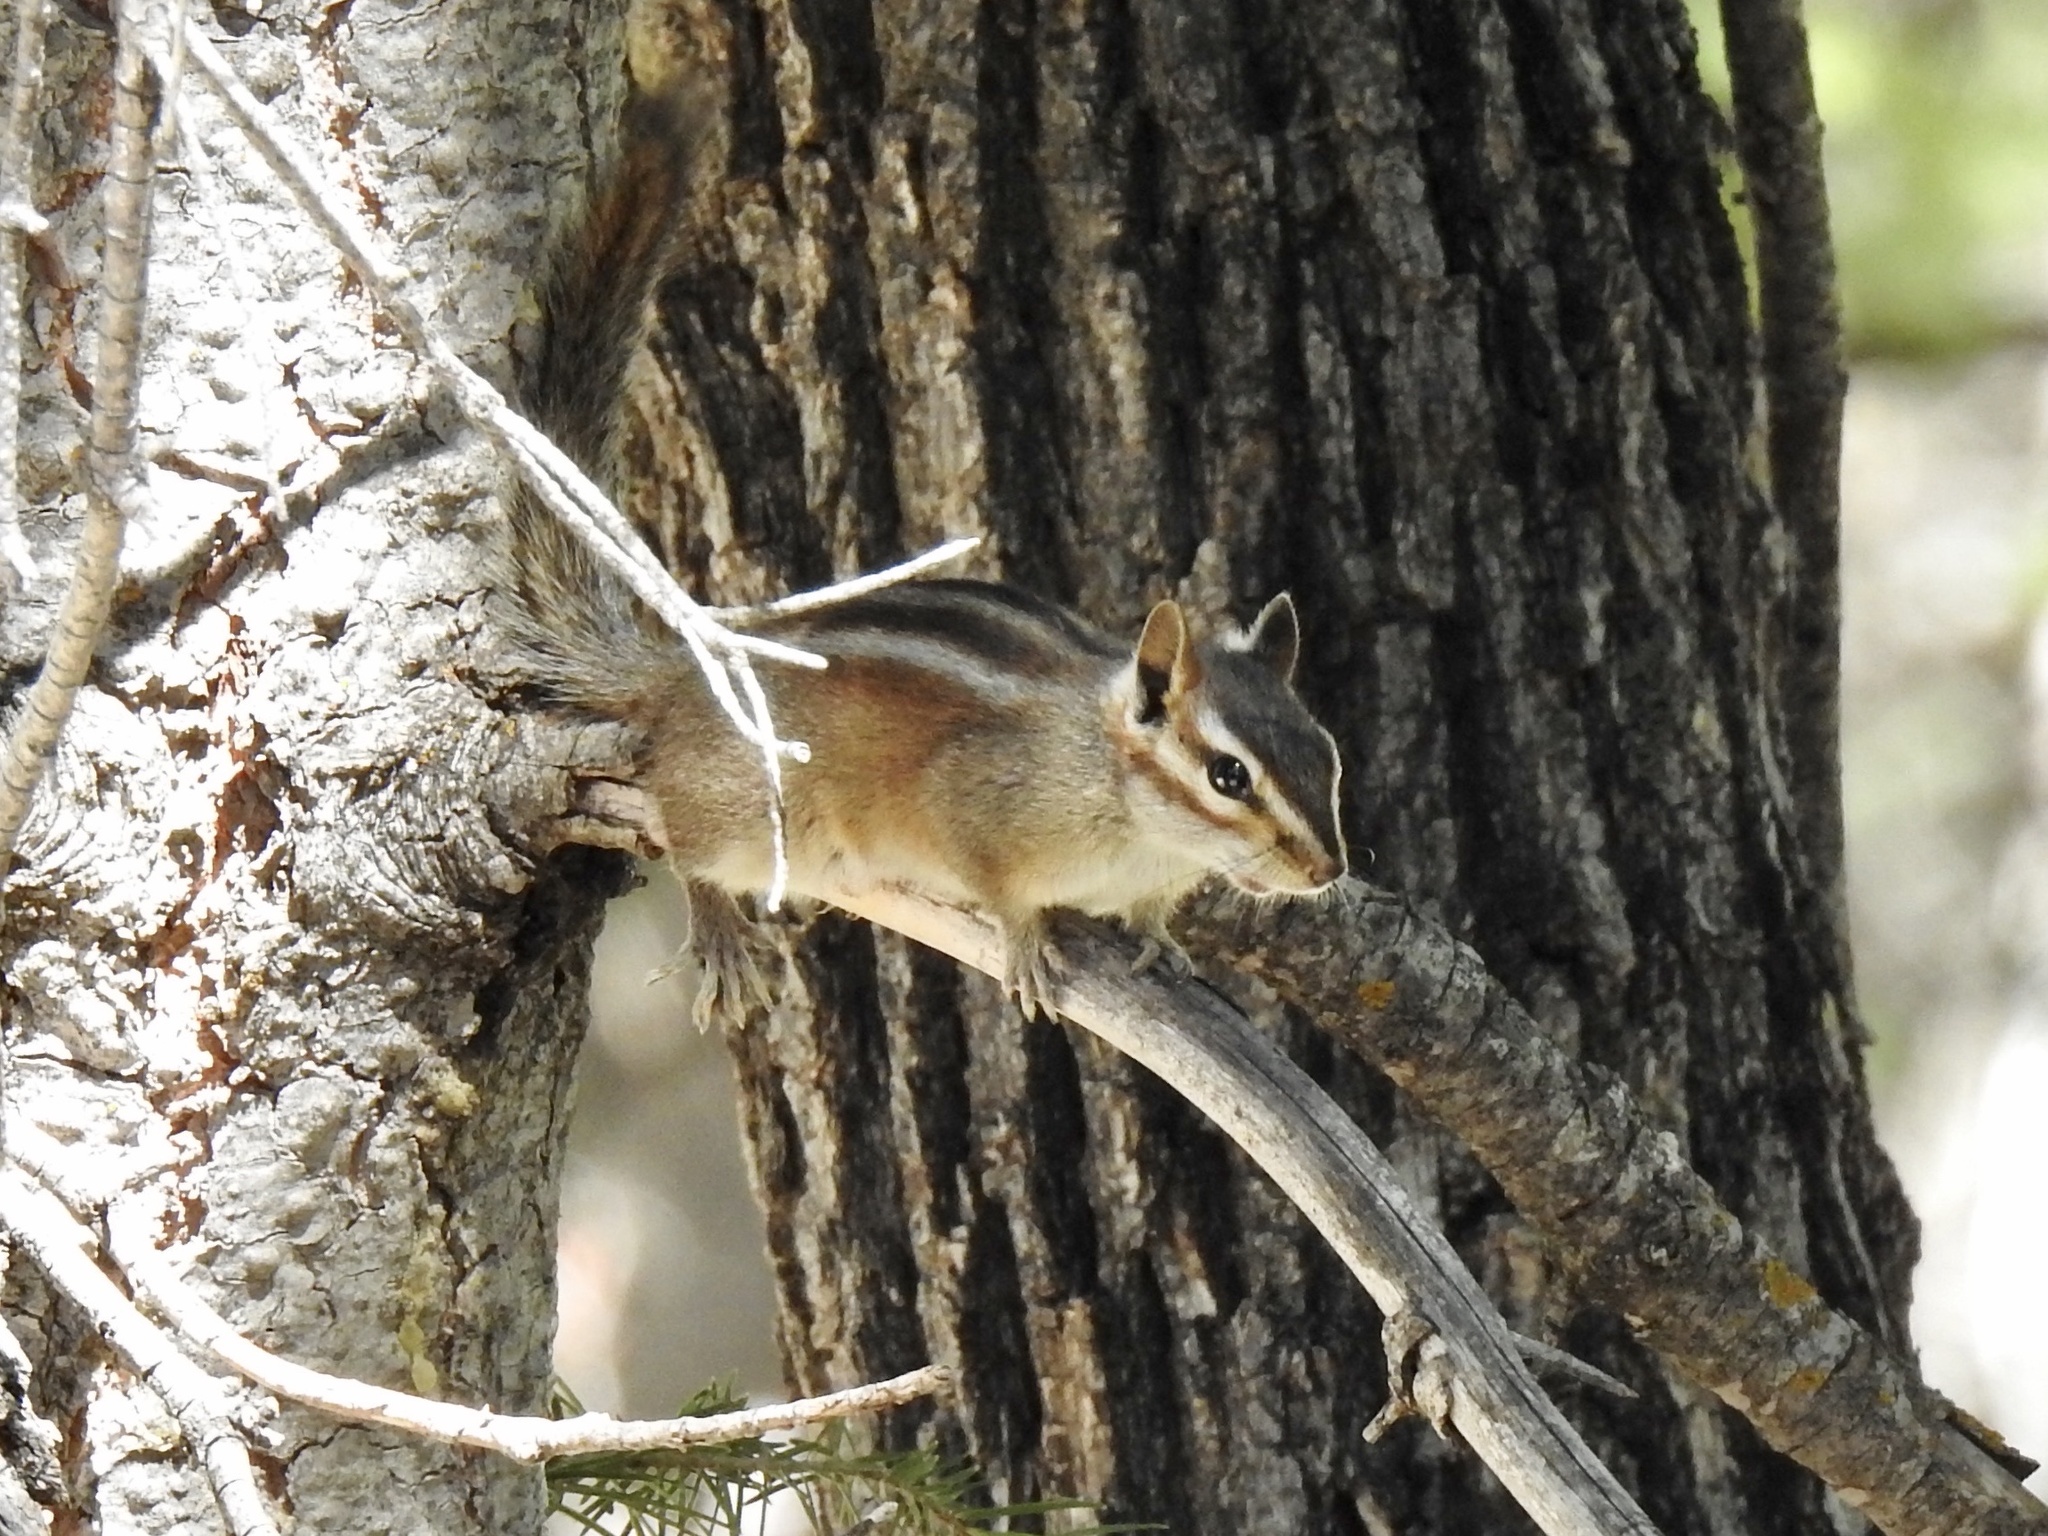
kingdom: Animalia
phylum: Chordata
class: Mammalia
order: Rodentia
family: Sciuridae
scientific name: Sciuridae
